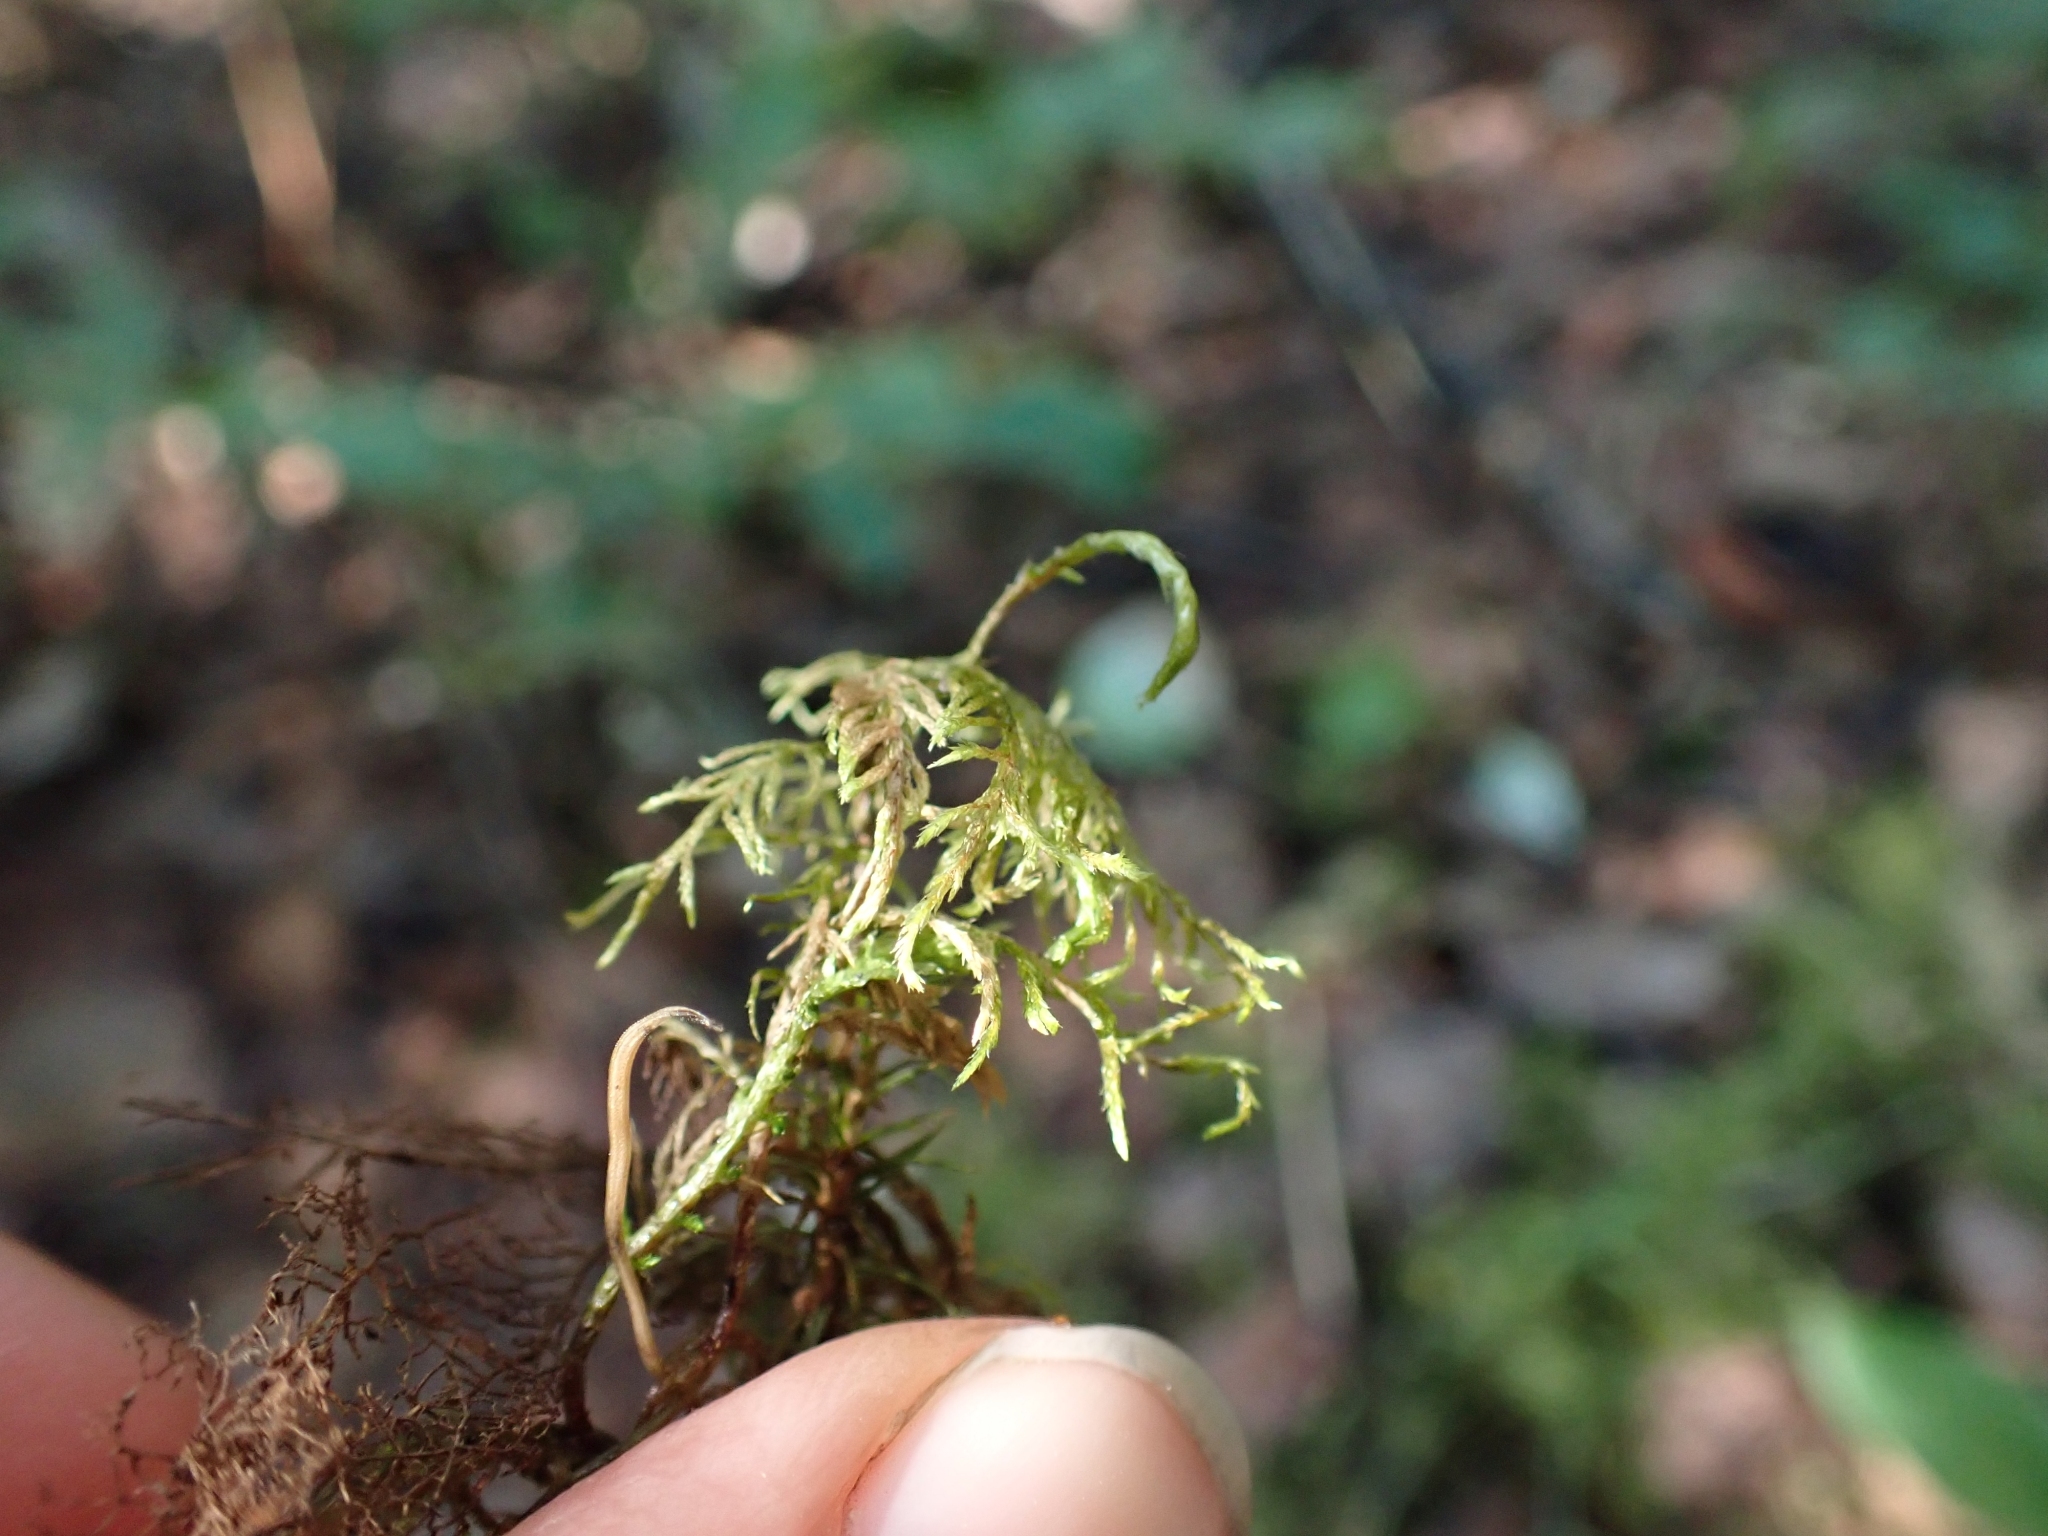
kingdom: Plantae
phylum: Bryophyta
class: Bryopsida
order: Hypnales
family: Hylocomiaceae
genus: Hylocomium
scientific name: Hylocomium splendens
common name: Stairstep moss
